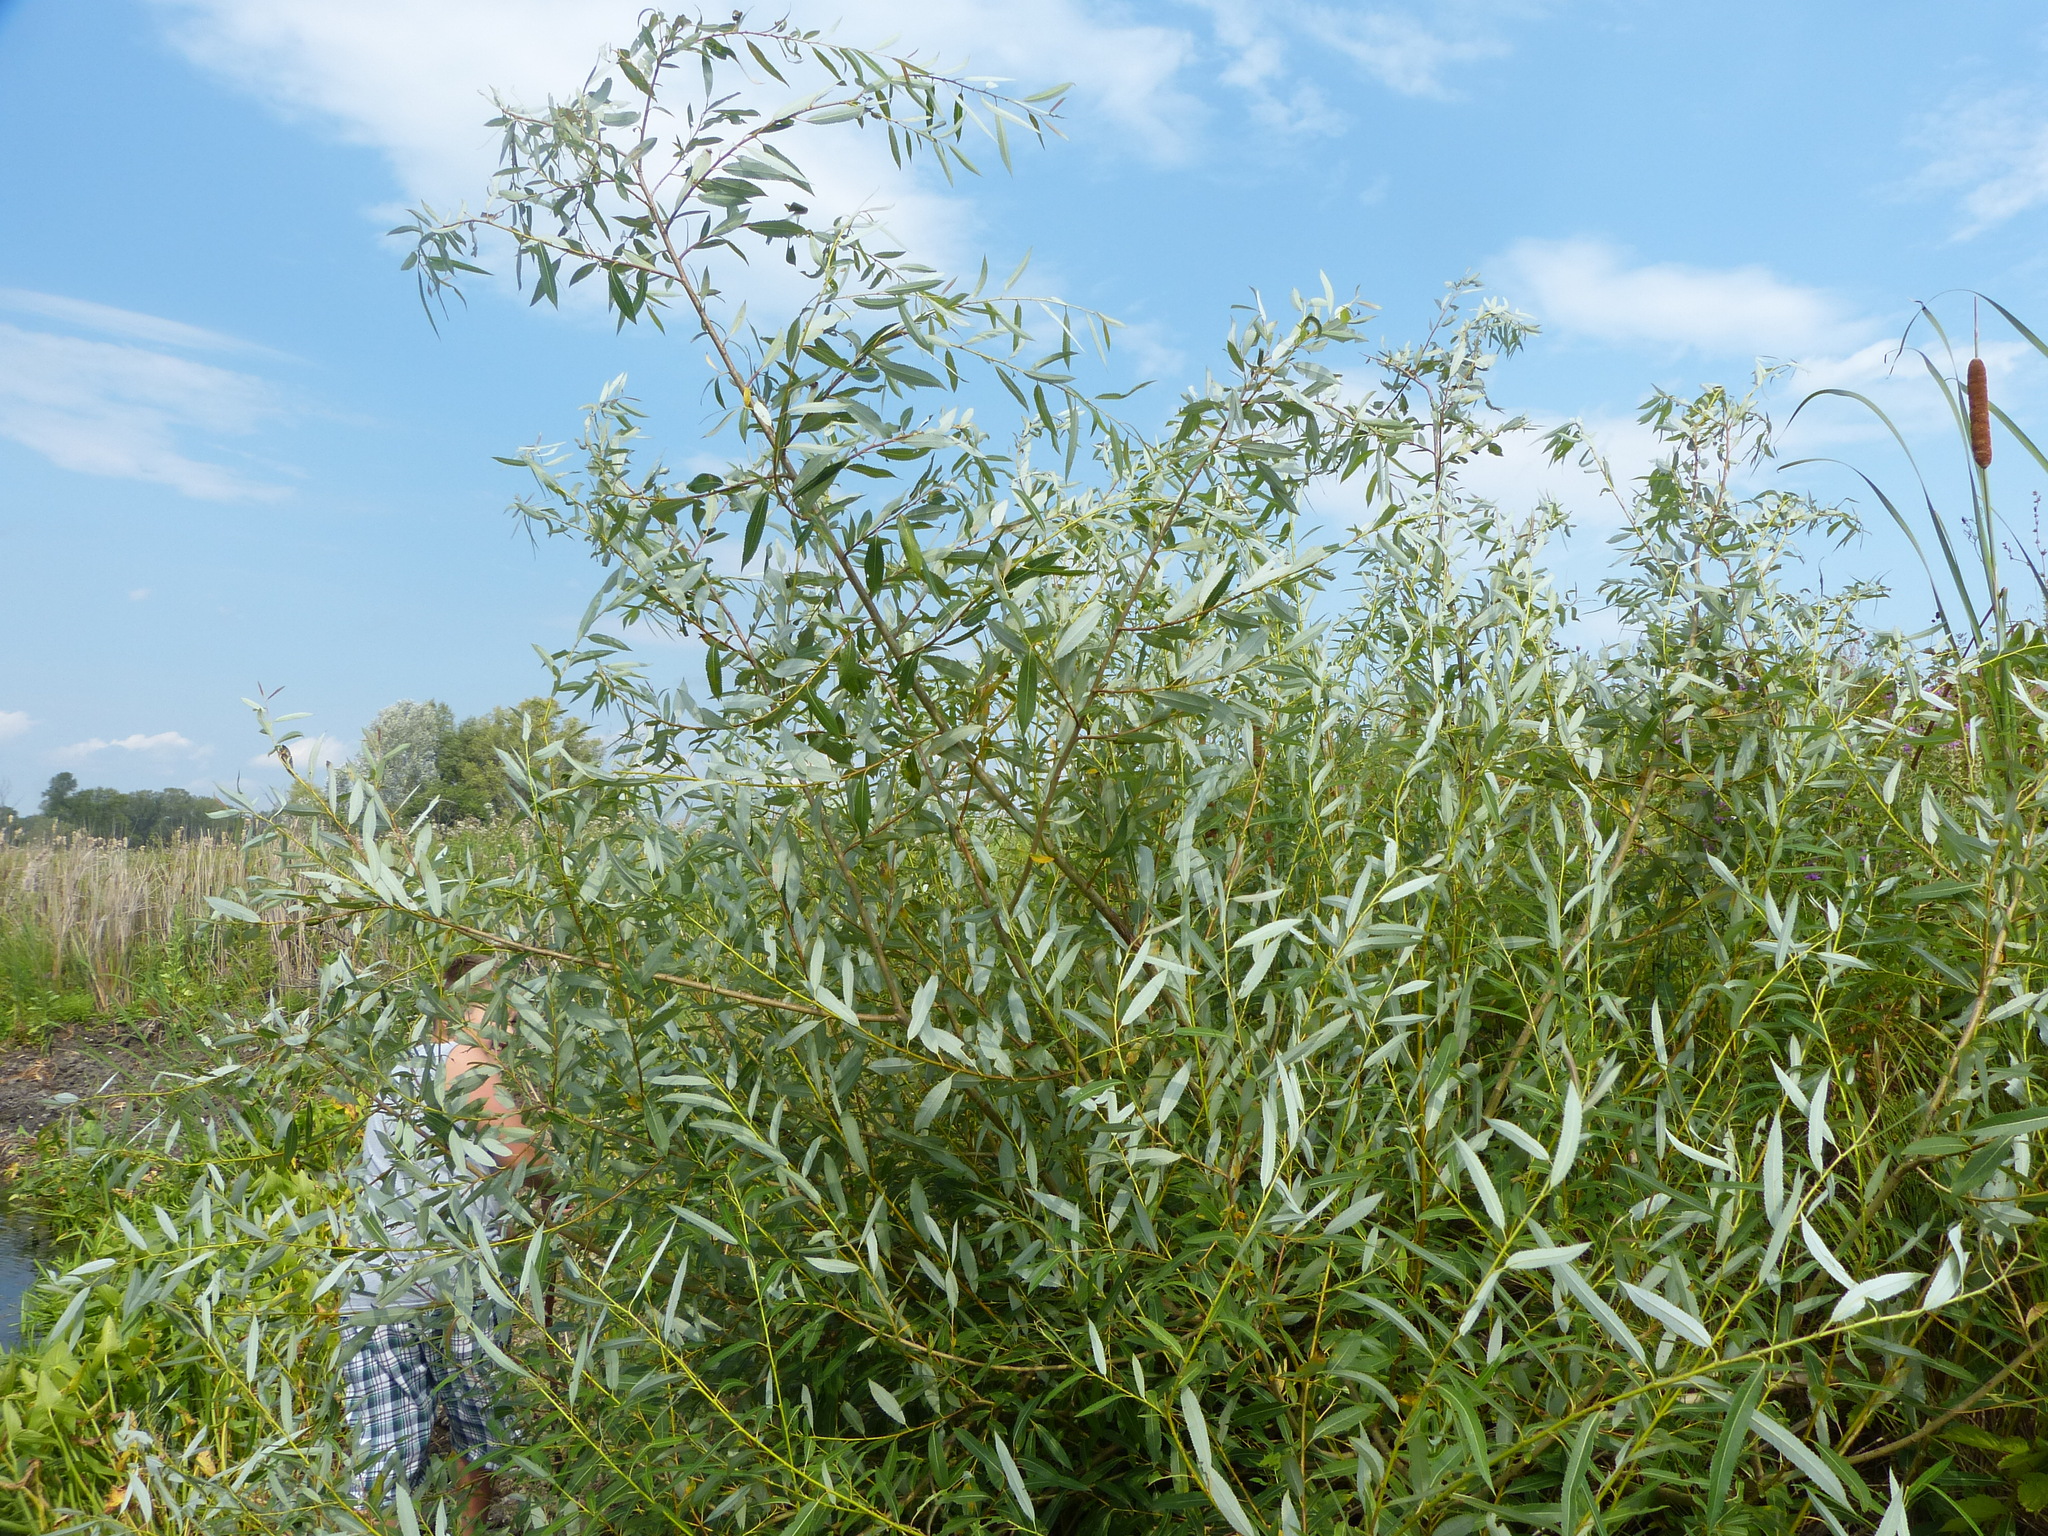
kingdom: Plantae
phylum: Tracheophyta
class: Magnoliopsida
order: Malpighiales
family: Salicaceae
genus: Salix
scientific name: Salix triandra
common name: Almond willow
